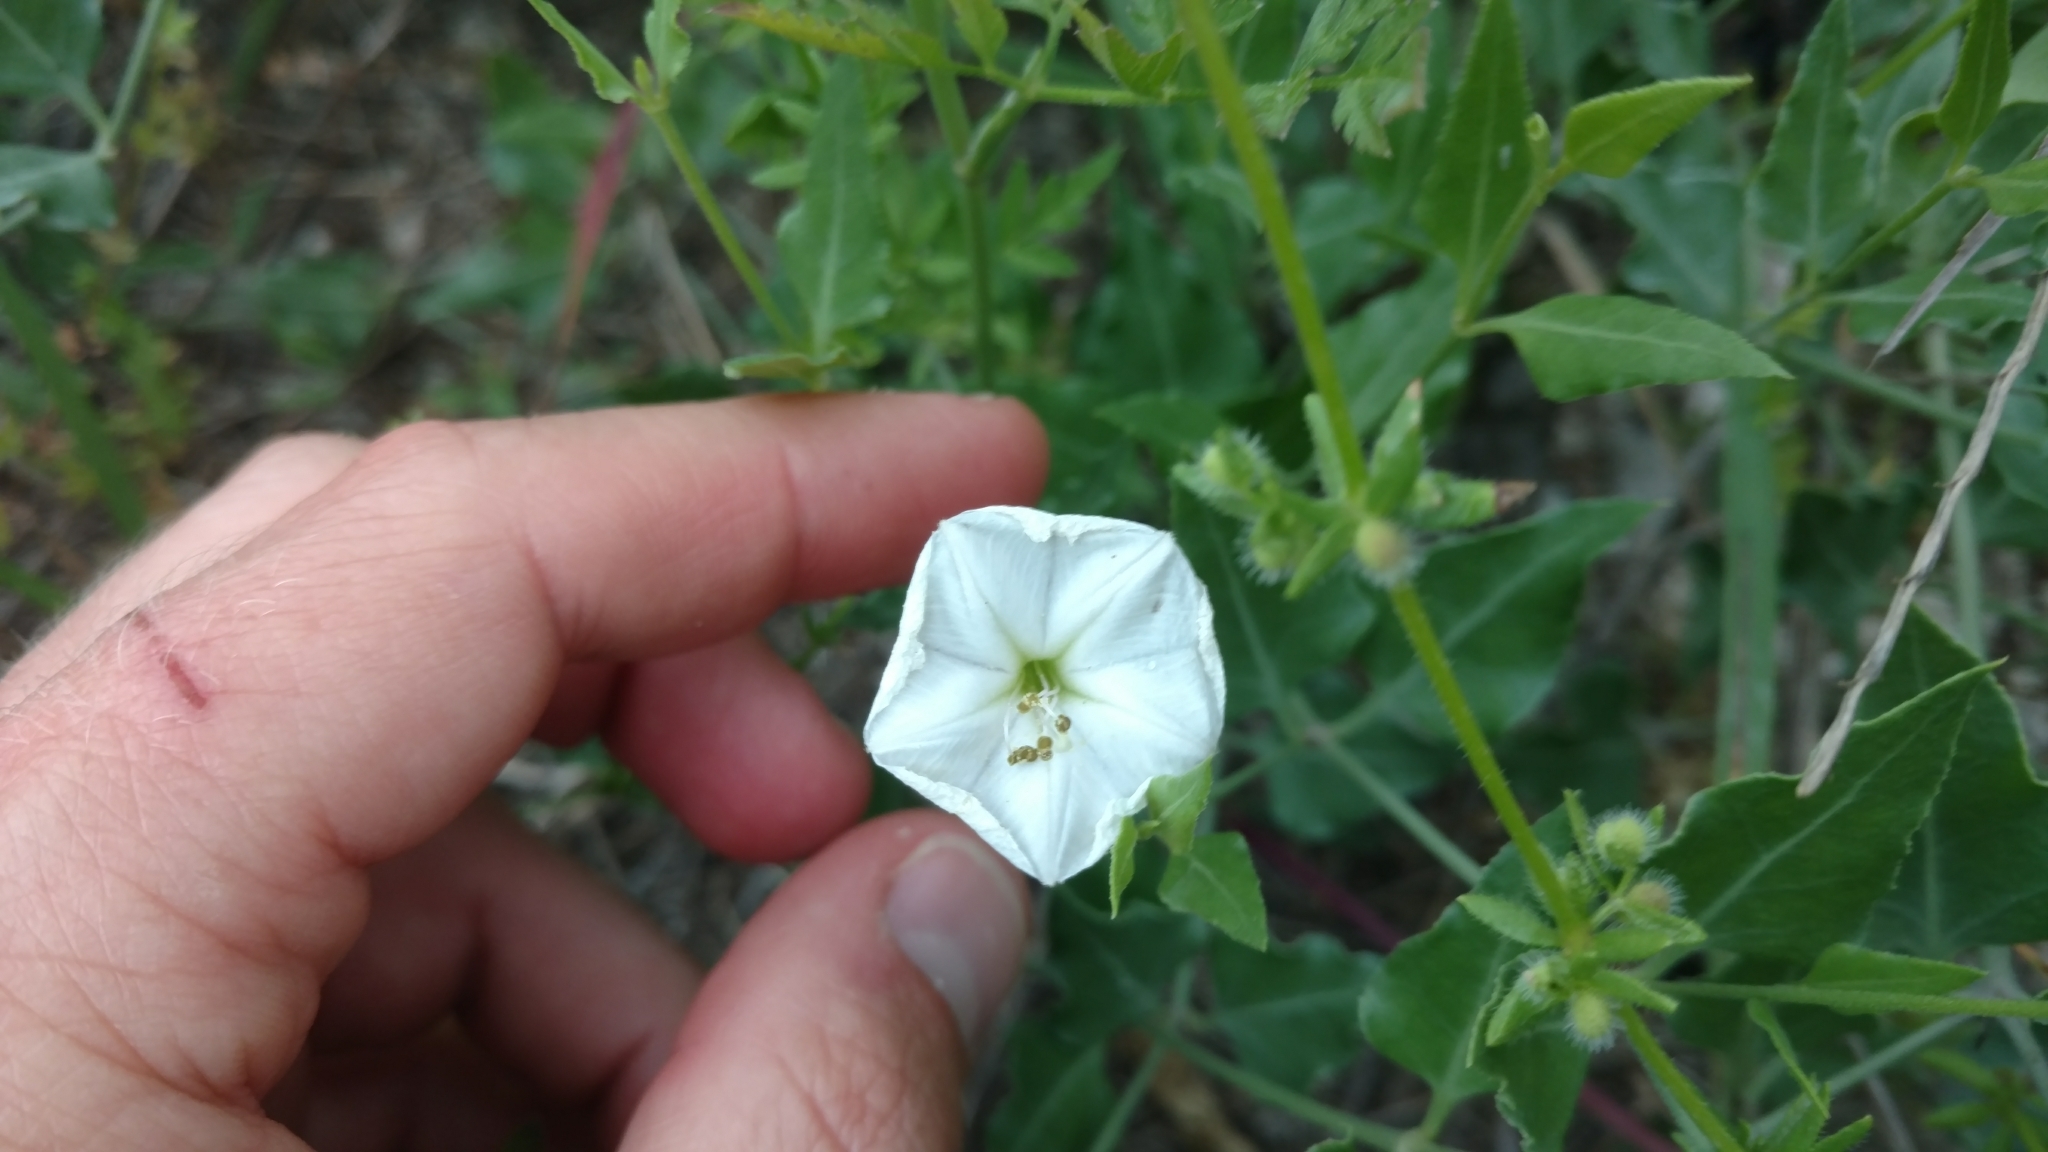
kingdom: Plantae
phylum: Tracheophyta
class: Magnoliopsida
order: Caryophyllales
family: Nyctaginaceae
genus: Acleisanthes
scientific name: Acleisanthes longiflora
